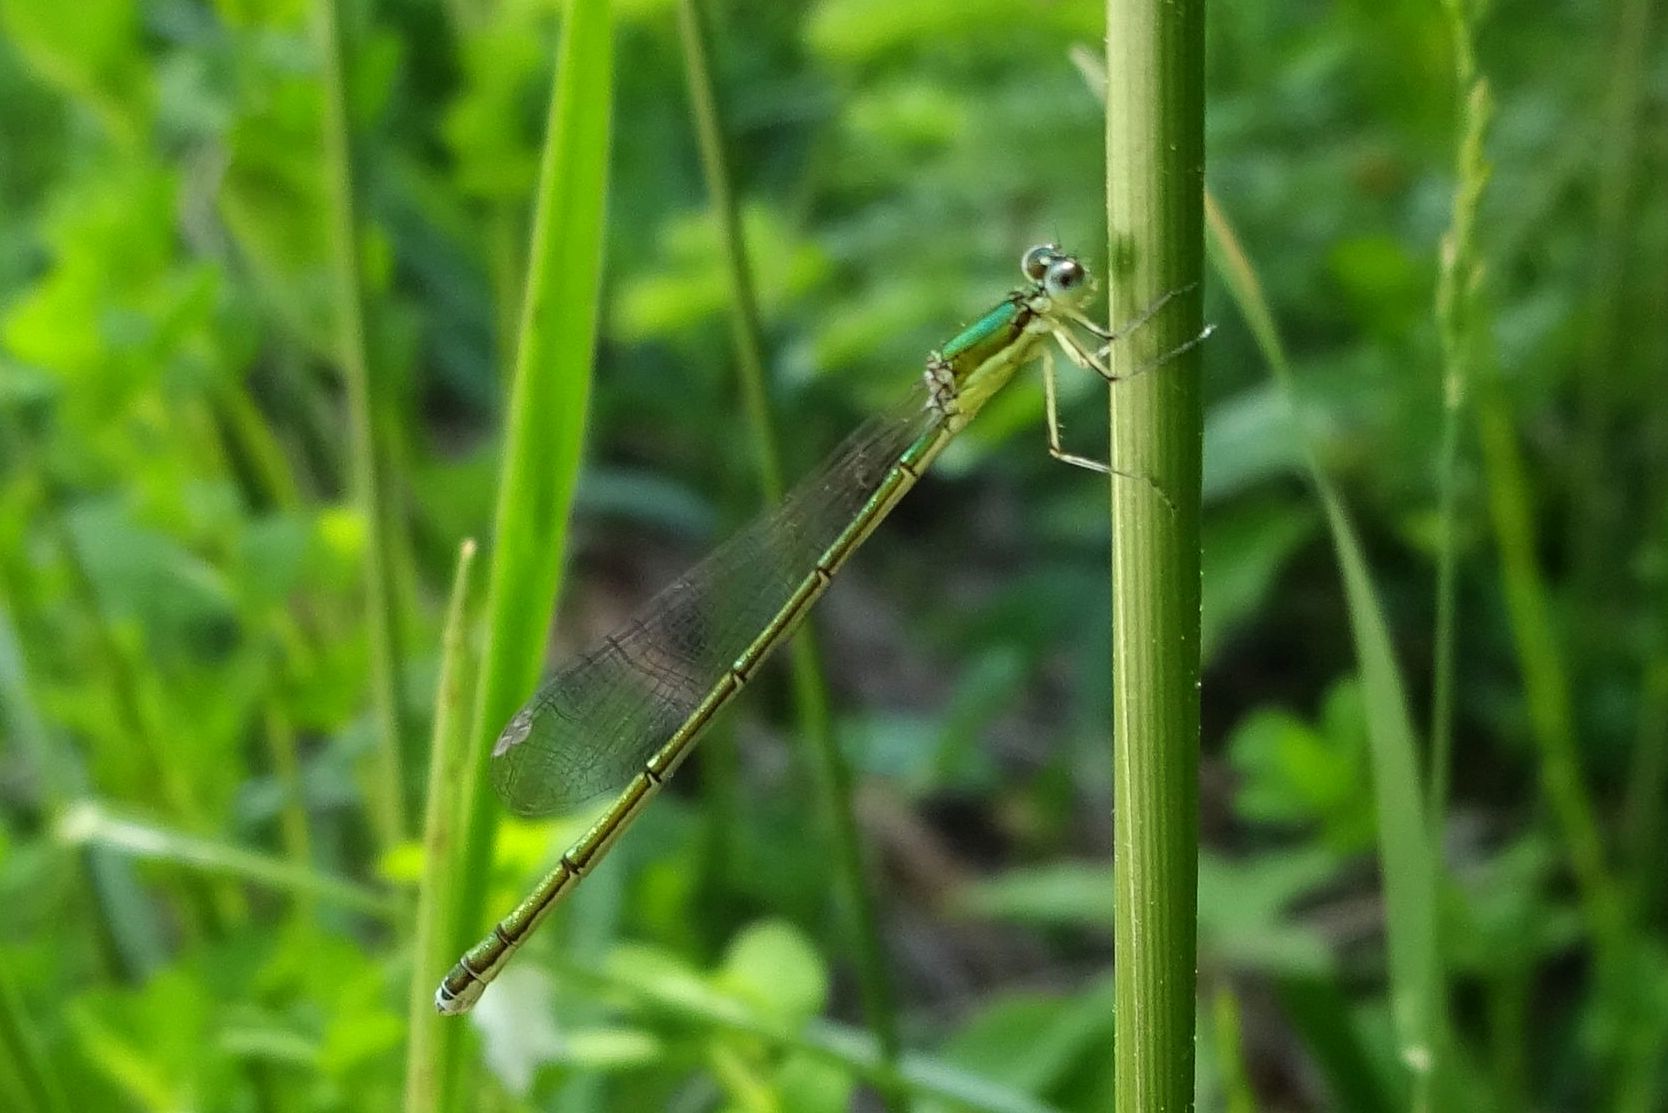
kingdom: Animalia
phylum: Arthropoda
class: Insecta
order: Odonata
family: Coenagrionidae
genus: Nehalennia
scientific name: Nehalennia irene
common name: Sedge sprite
